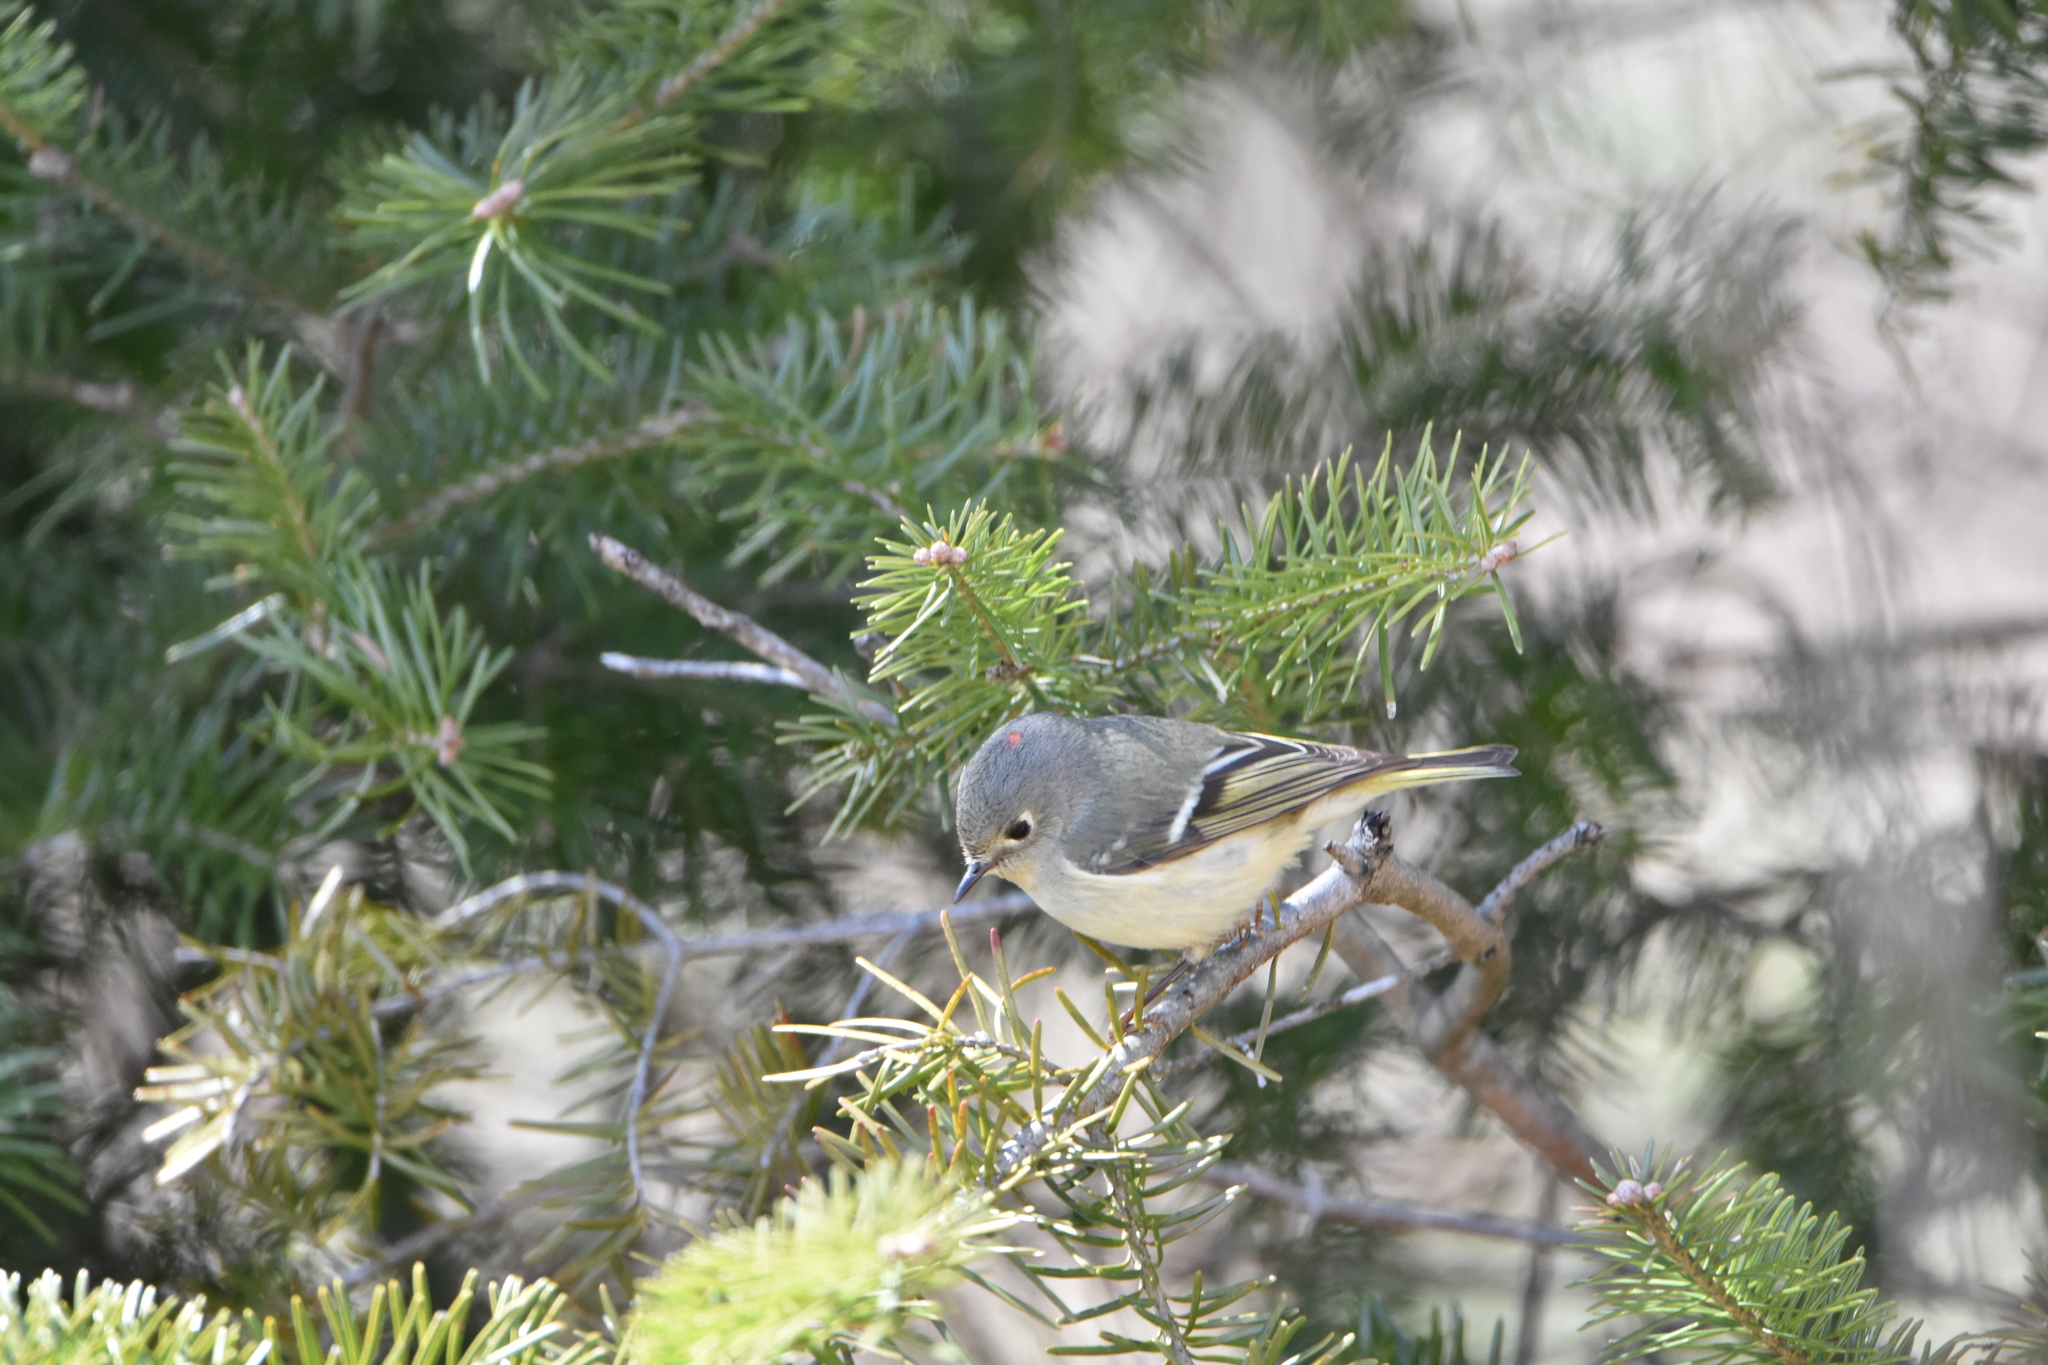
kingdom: Animalia
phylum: Chordata
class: Aves
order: Passeriformes
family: Regulidae
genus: Regulus
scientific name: Regulus calendula
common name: Ruby-crowned kinglet
